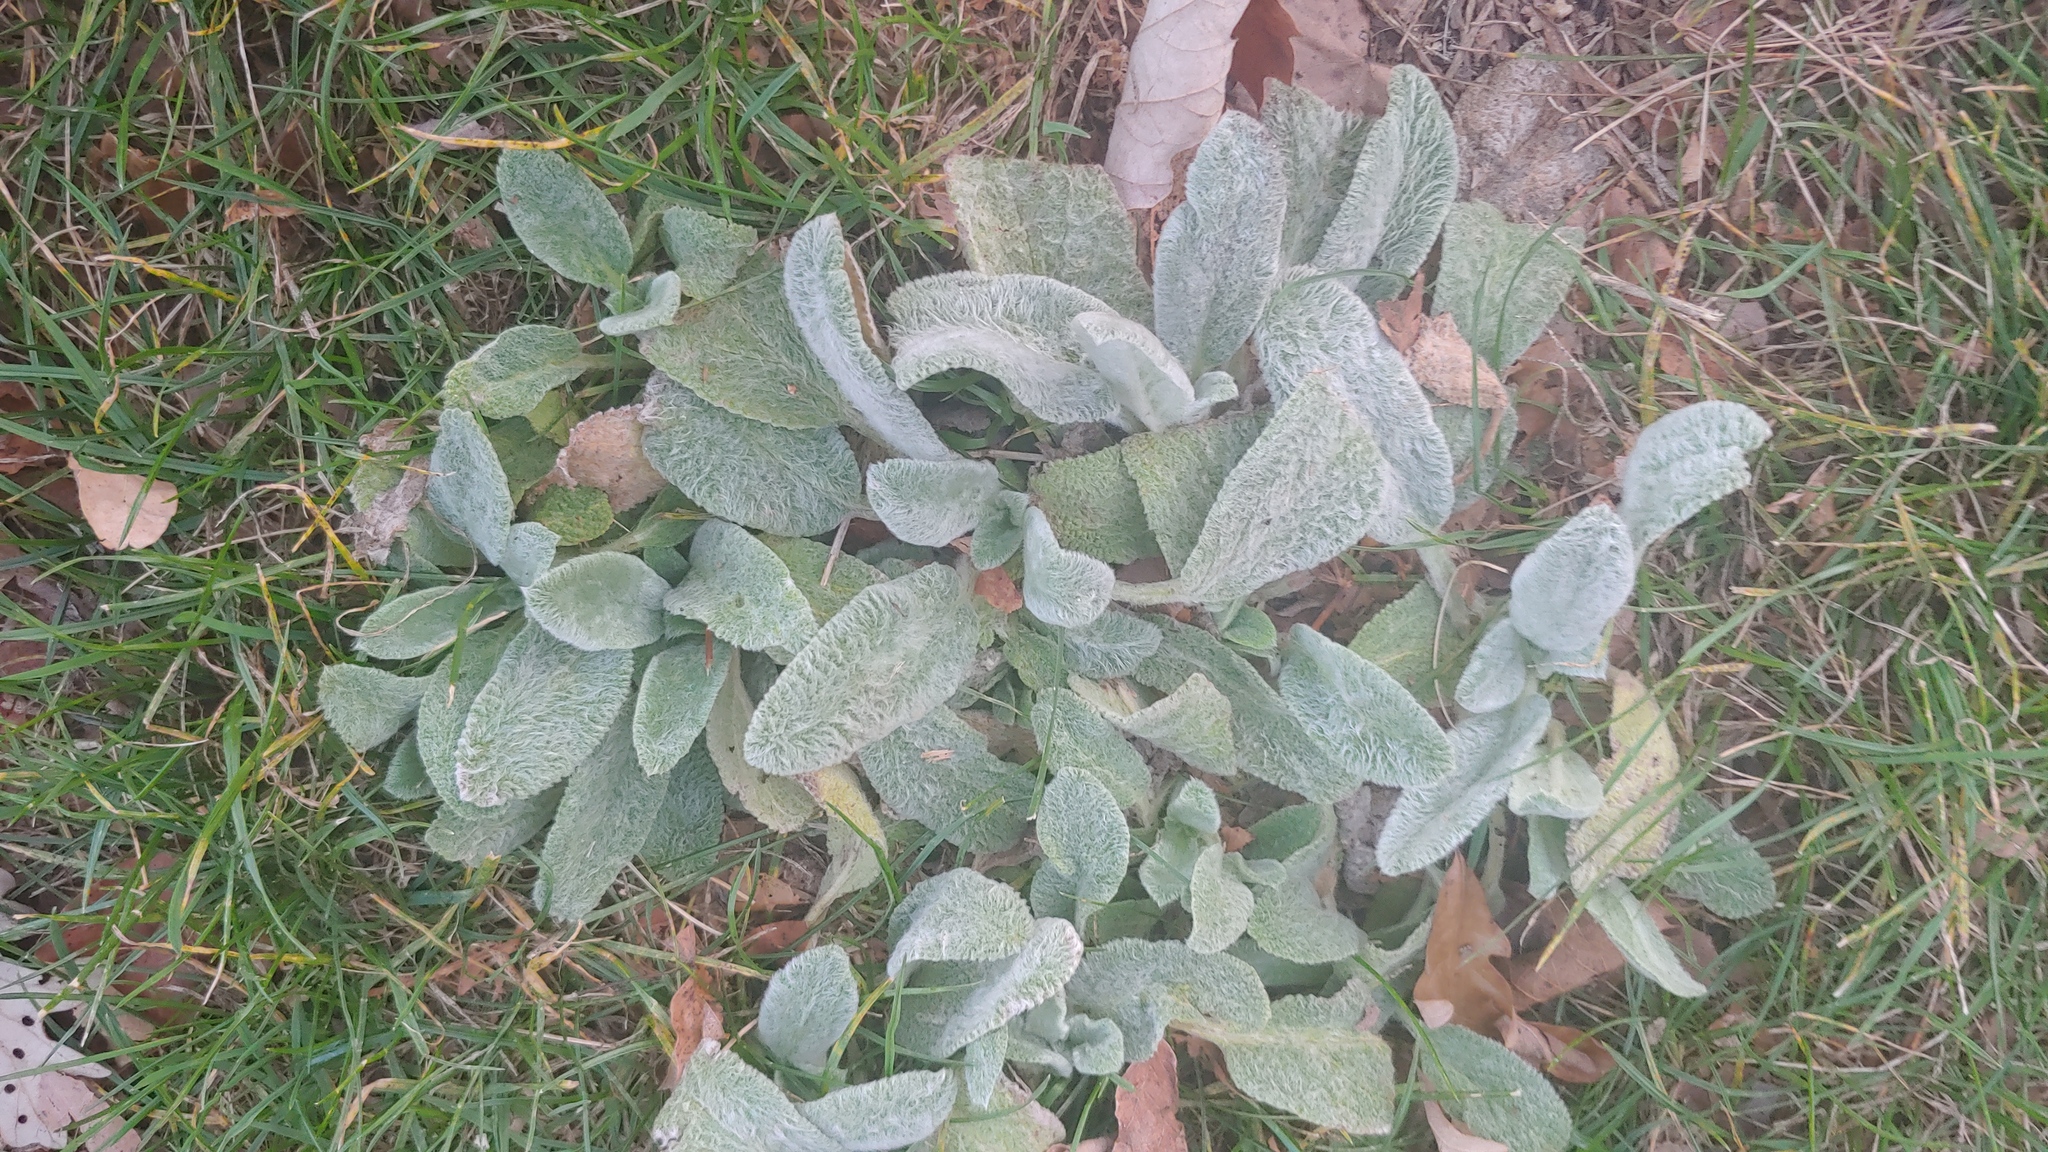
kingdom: Plantae
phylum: Tracheophyta
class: Magnoliopsida
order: Lamiales
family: Lamiaceae
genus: Stachys
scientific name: Stachys byzantina
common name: Lamb's-ear
